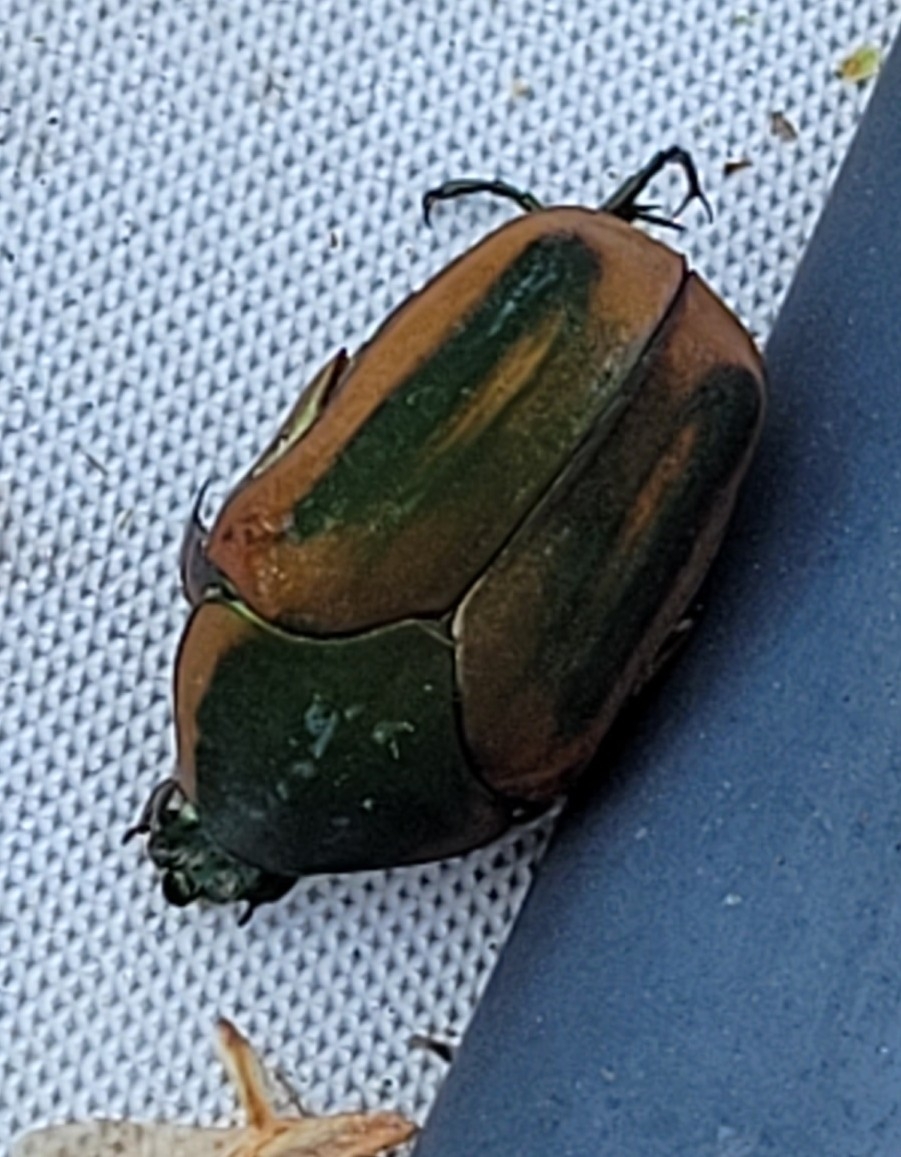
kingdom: Animalia
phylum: Arthropoda
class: Insecta
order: Coleoptera
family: Scarabaeidae
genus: Cotinis
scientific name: Cotinis nitida
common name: Common green june beetle
